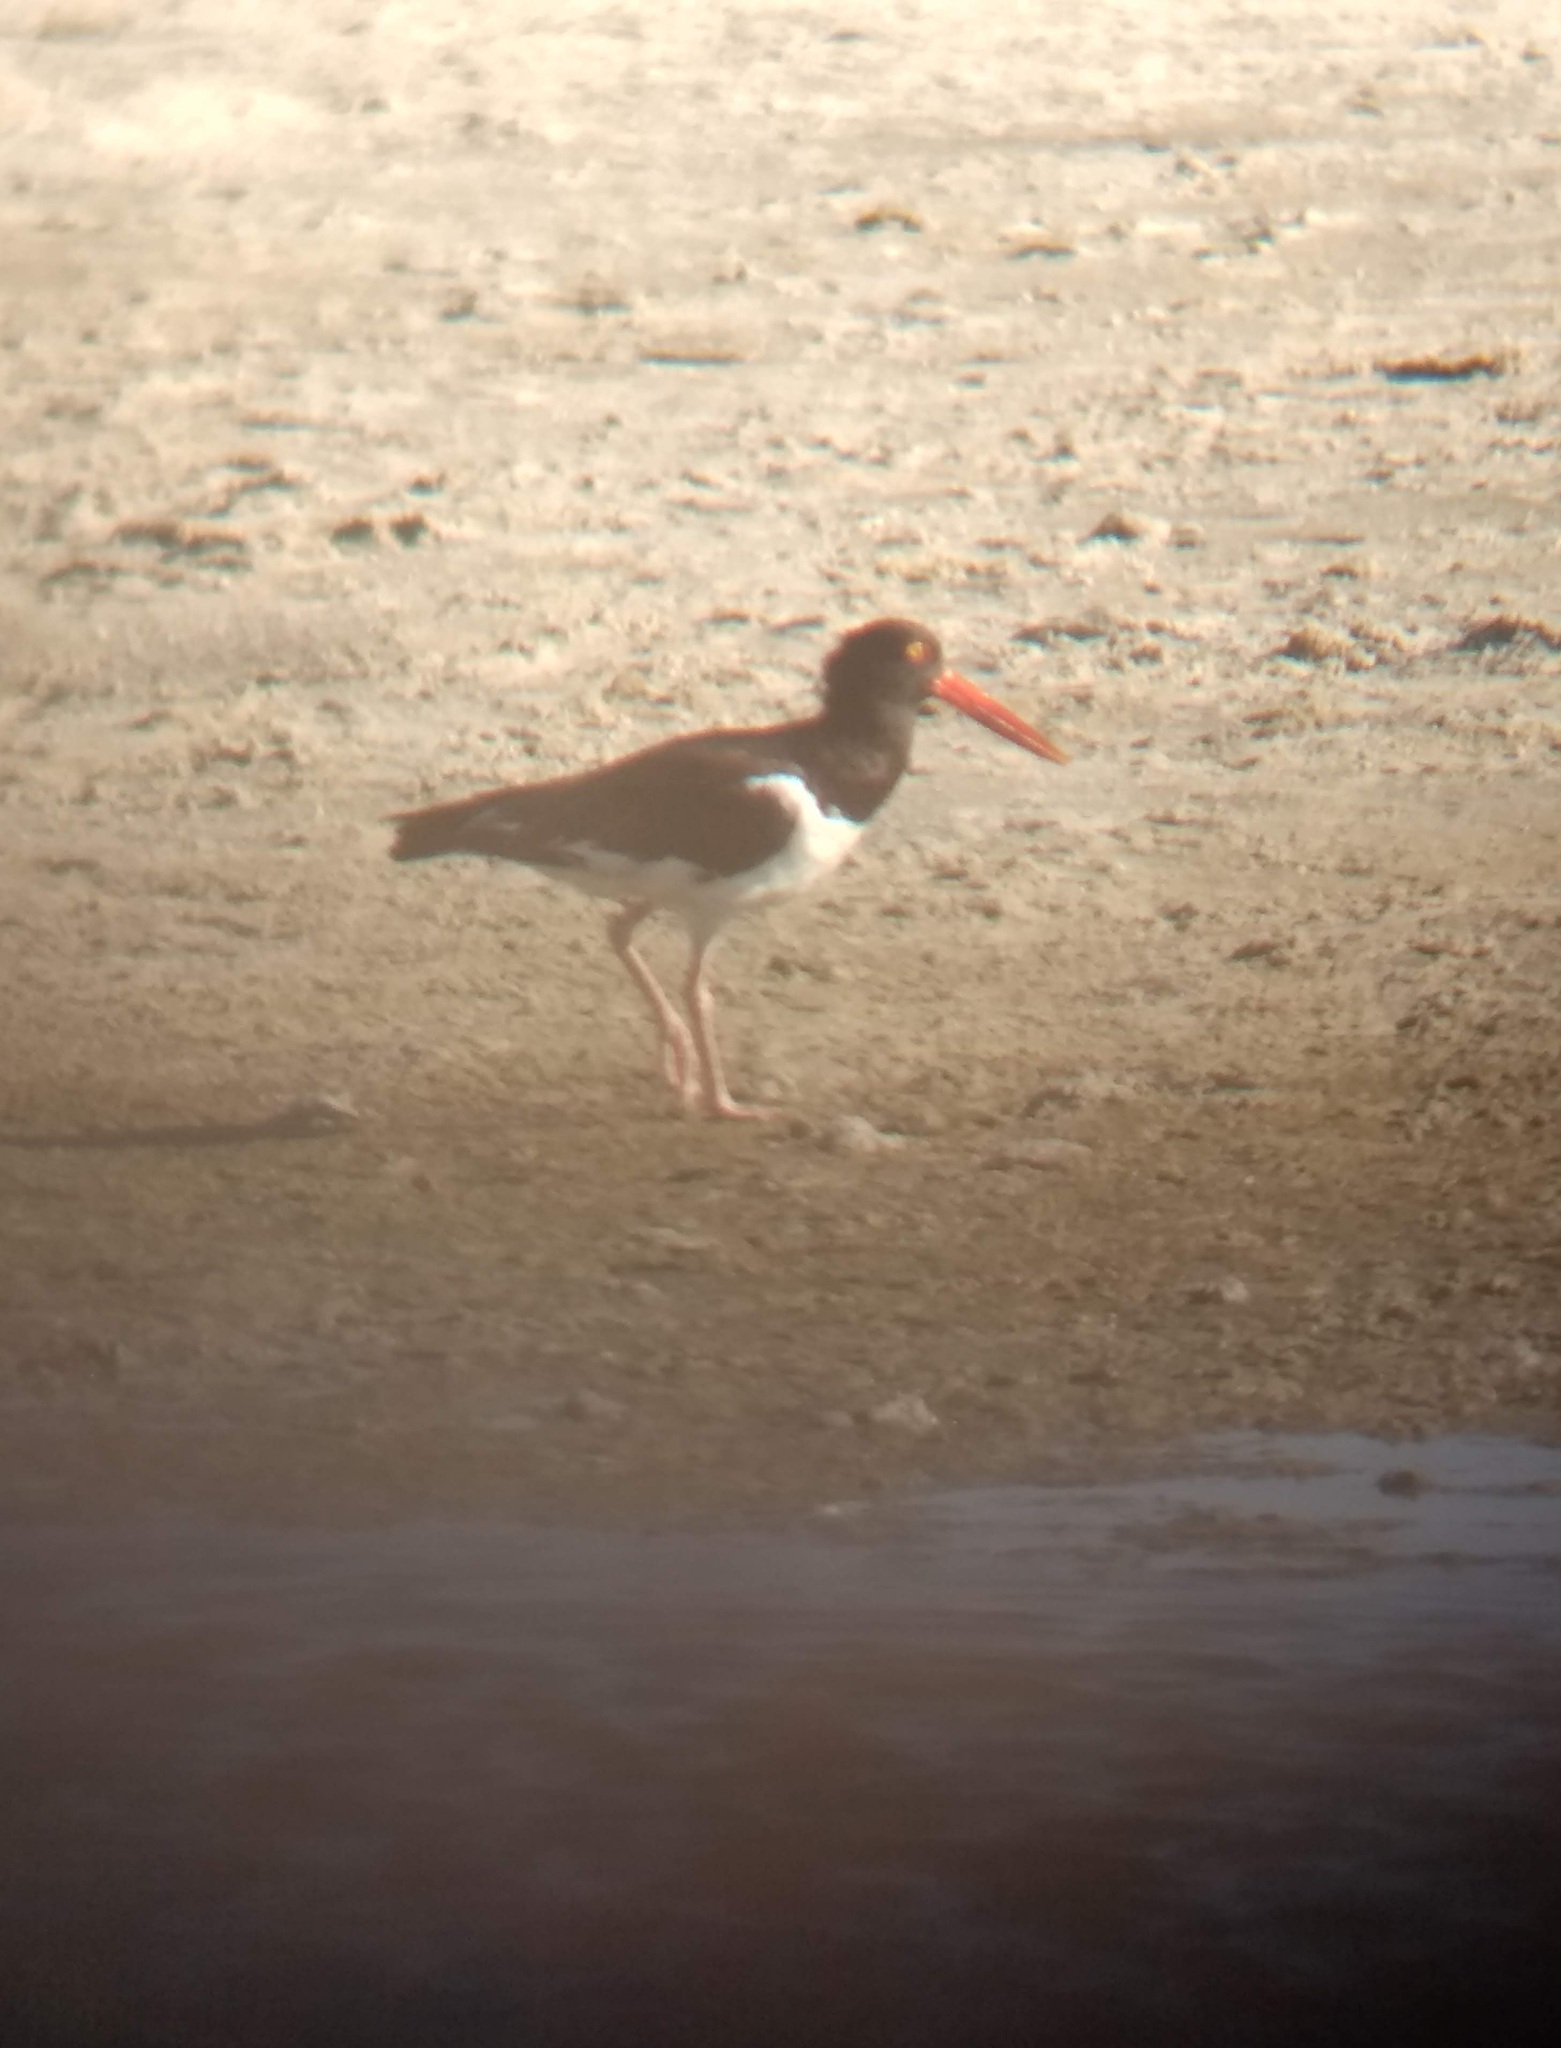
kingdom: Animalia
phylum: Chordata
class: Aves
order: Charadriiformes
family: Haematopodidae
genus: Haematopus
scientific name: Haematopus palliatus
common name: American oystercatcher
